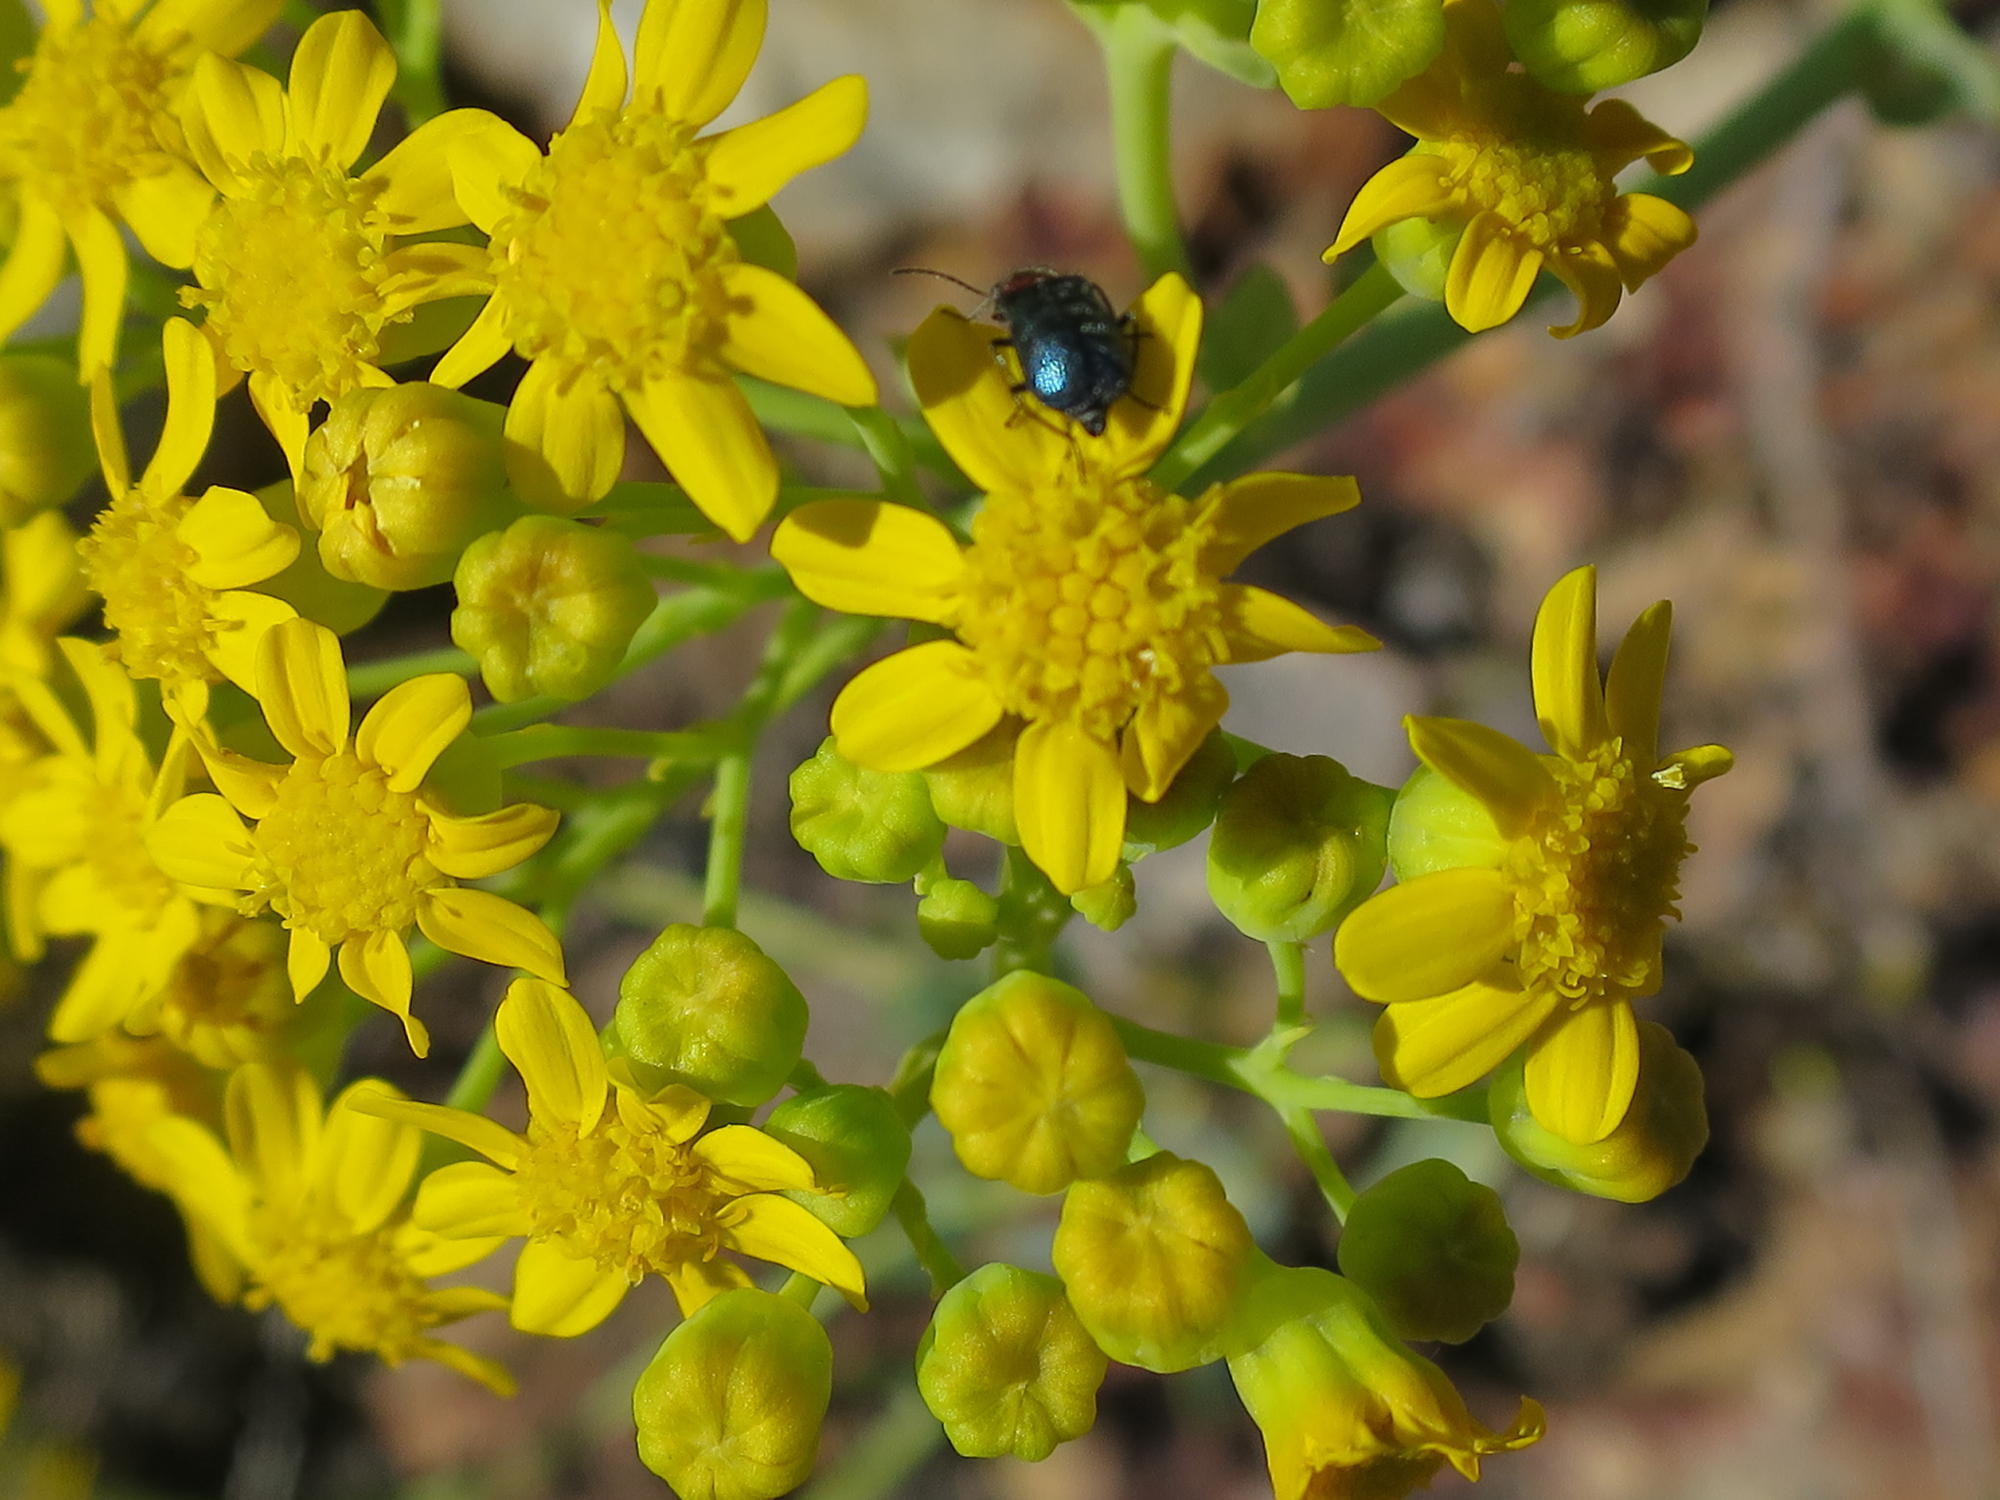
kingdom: Plantae
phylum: Tracheophyta
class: Magnoliopsida
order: Asterales
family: Asteraceae
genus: Othonna
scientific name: Othonna parviflora
